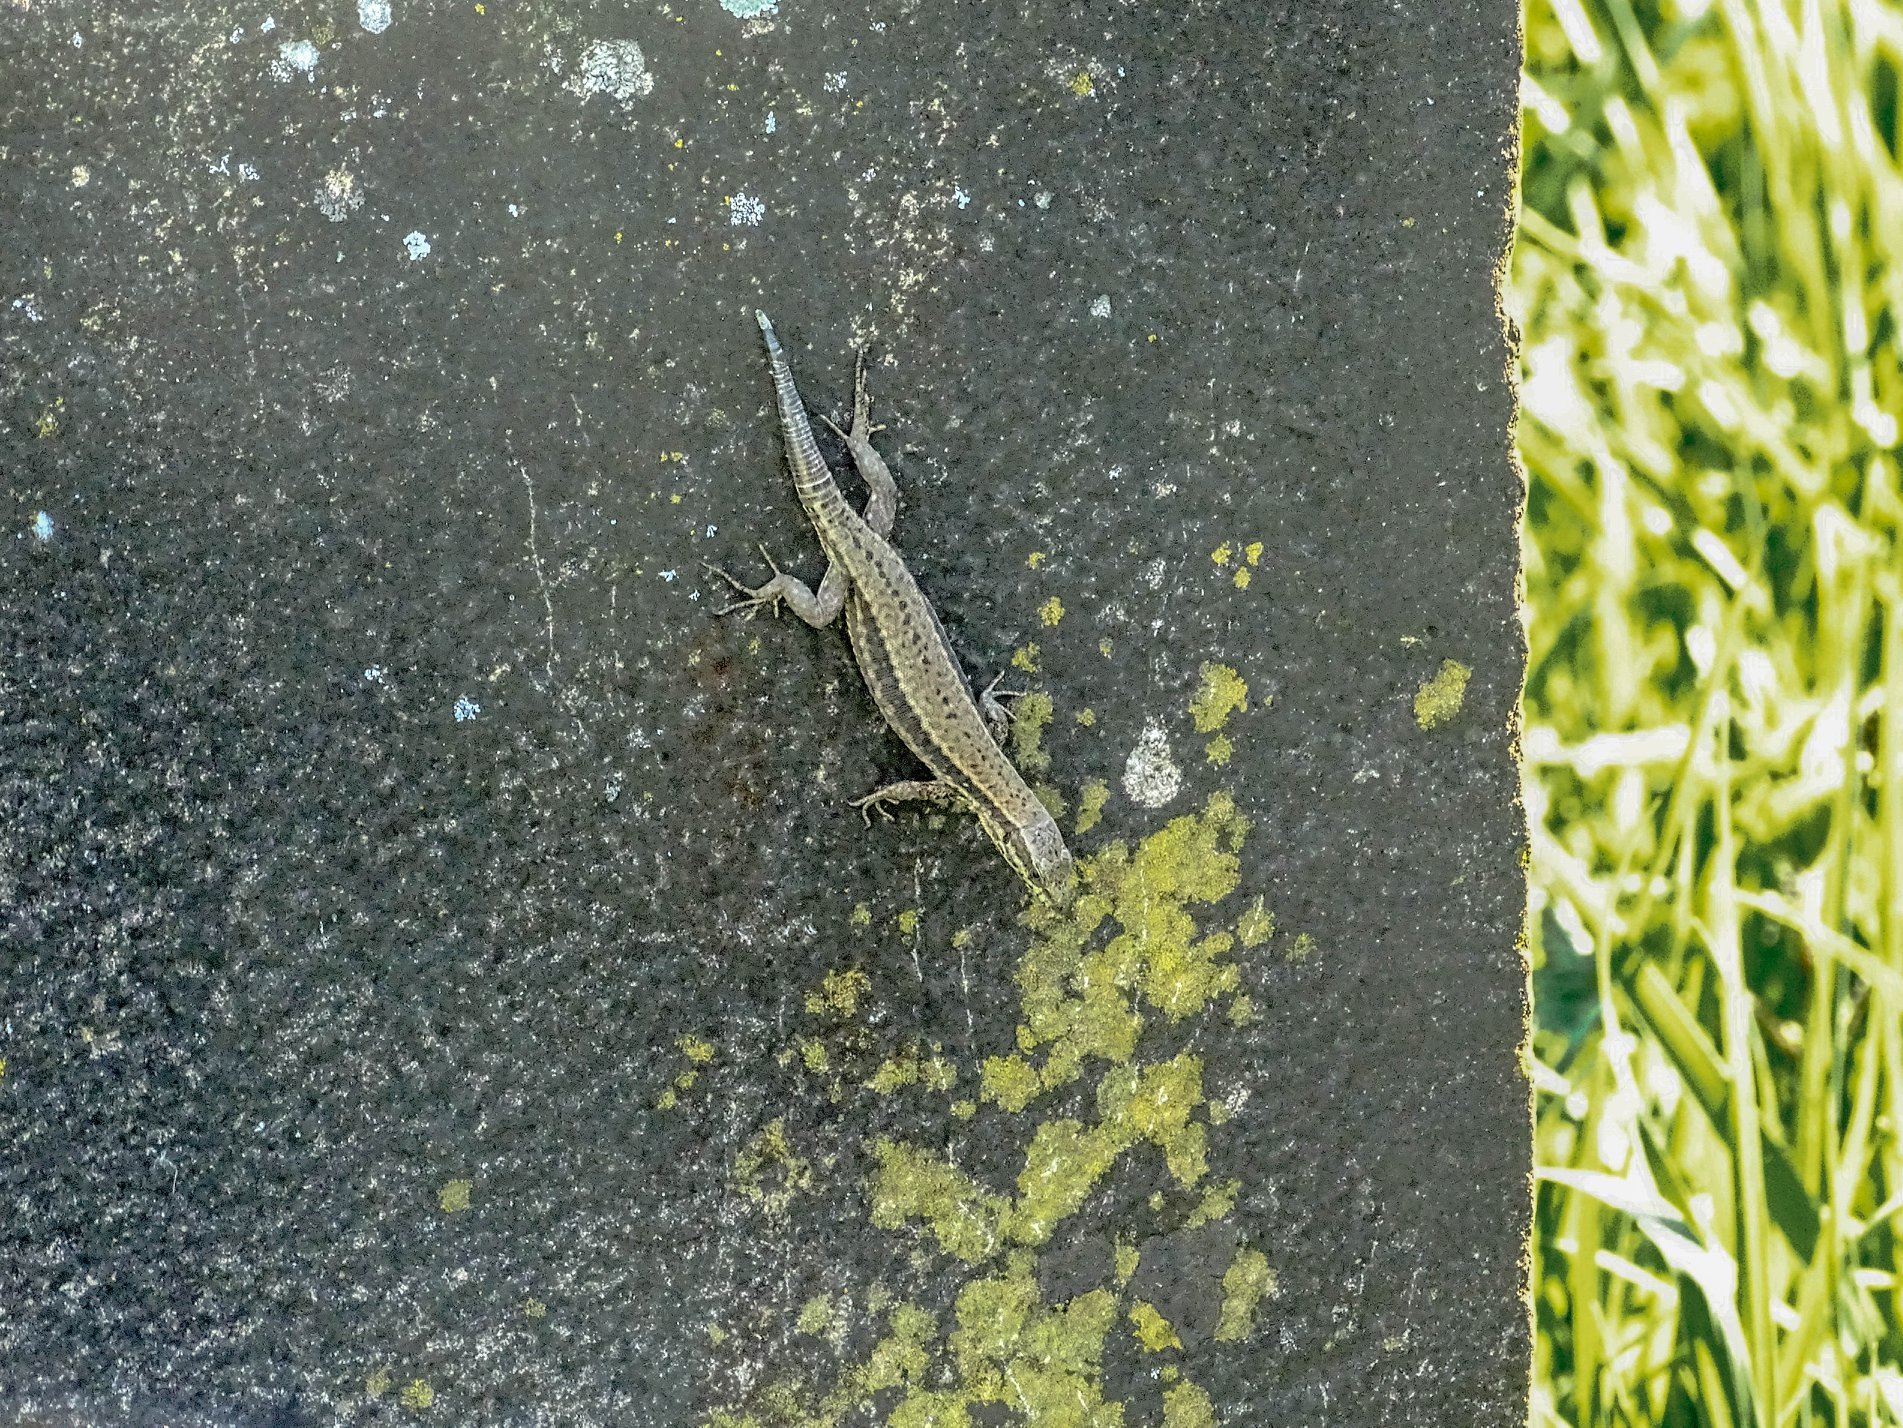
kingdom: Animalia
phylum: Chordata
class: Squamata
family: Lacertidae
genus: Podarcis
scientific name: Podarcis muralis
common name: Common wall lizard
